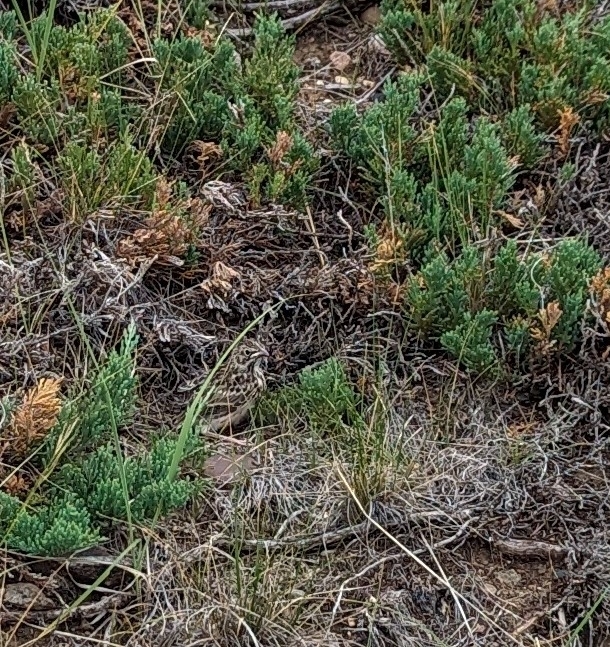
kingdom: Animalia
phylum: Chordata
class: Aves
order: Passeriformes
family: Passerellidae
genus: Chondestes
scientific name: Chondestes grammacus
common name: Lark sparrow
